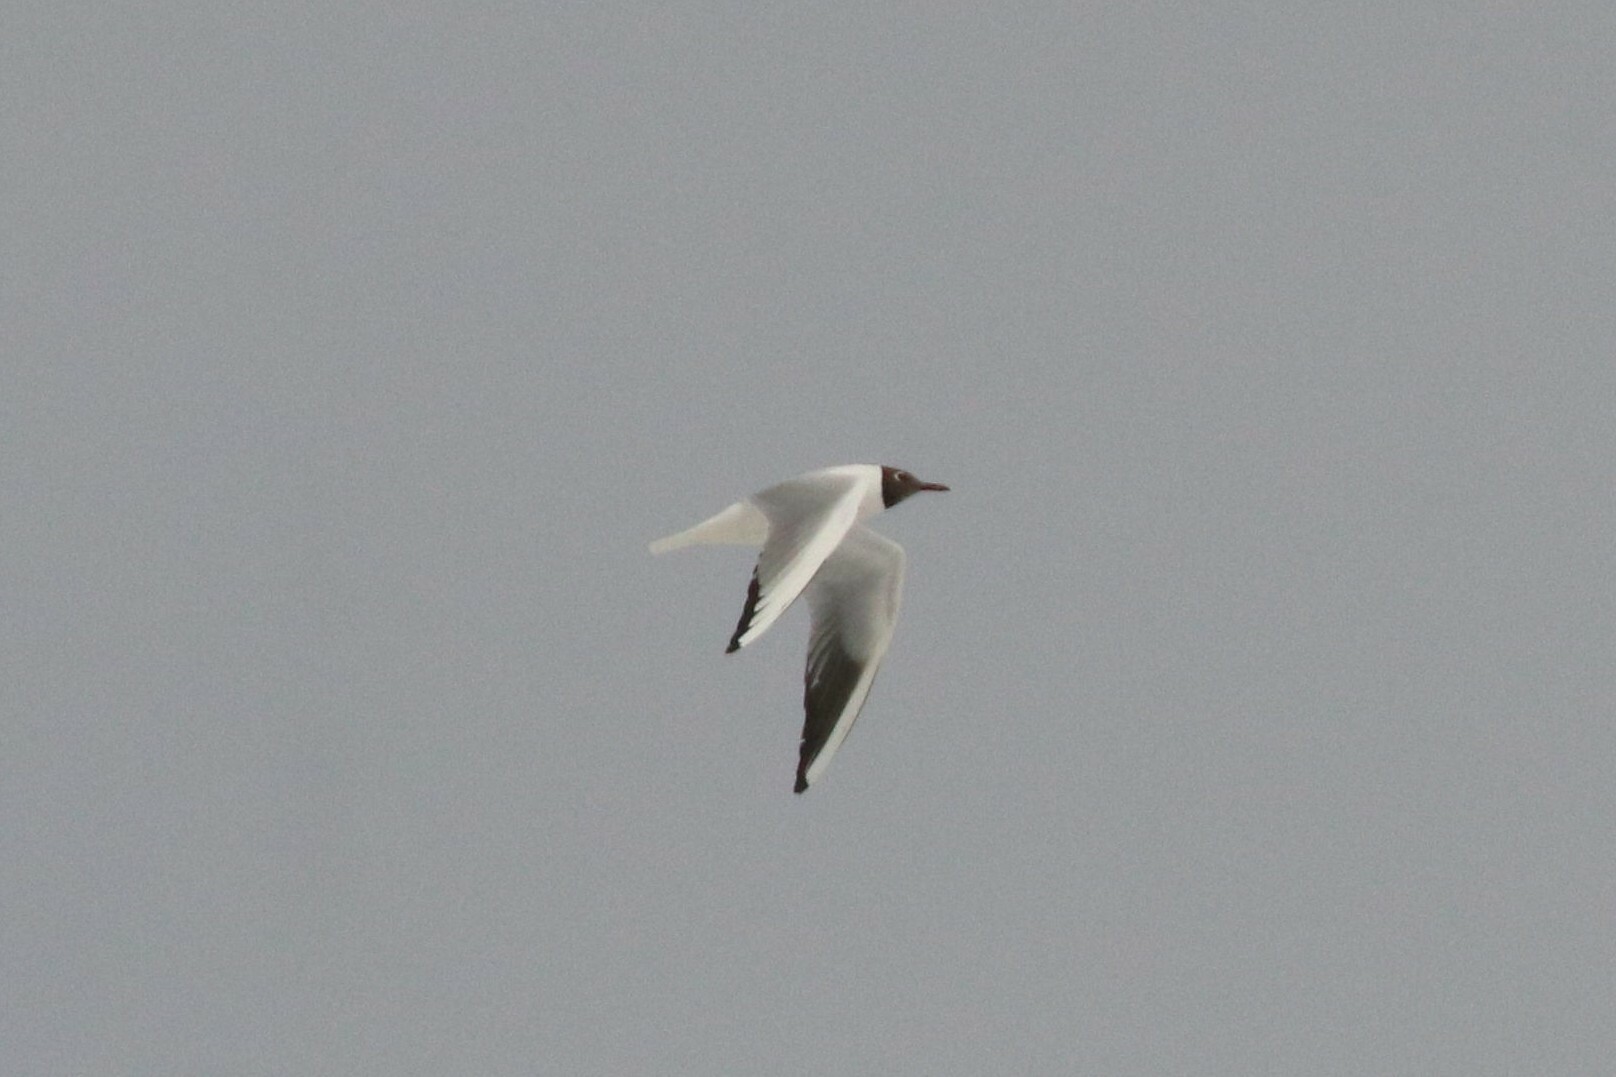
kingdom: Animalia
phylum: Chordata
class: Aves
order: Charadriiformes
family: Laridae
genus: Chroicocephalus
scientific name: Chroicocephalus ridibundus
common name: Black-headed gull
